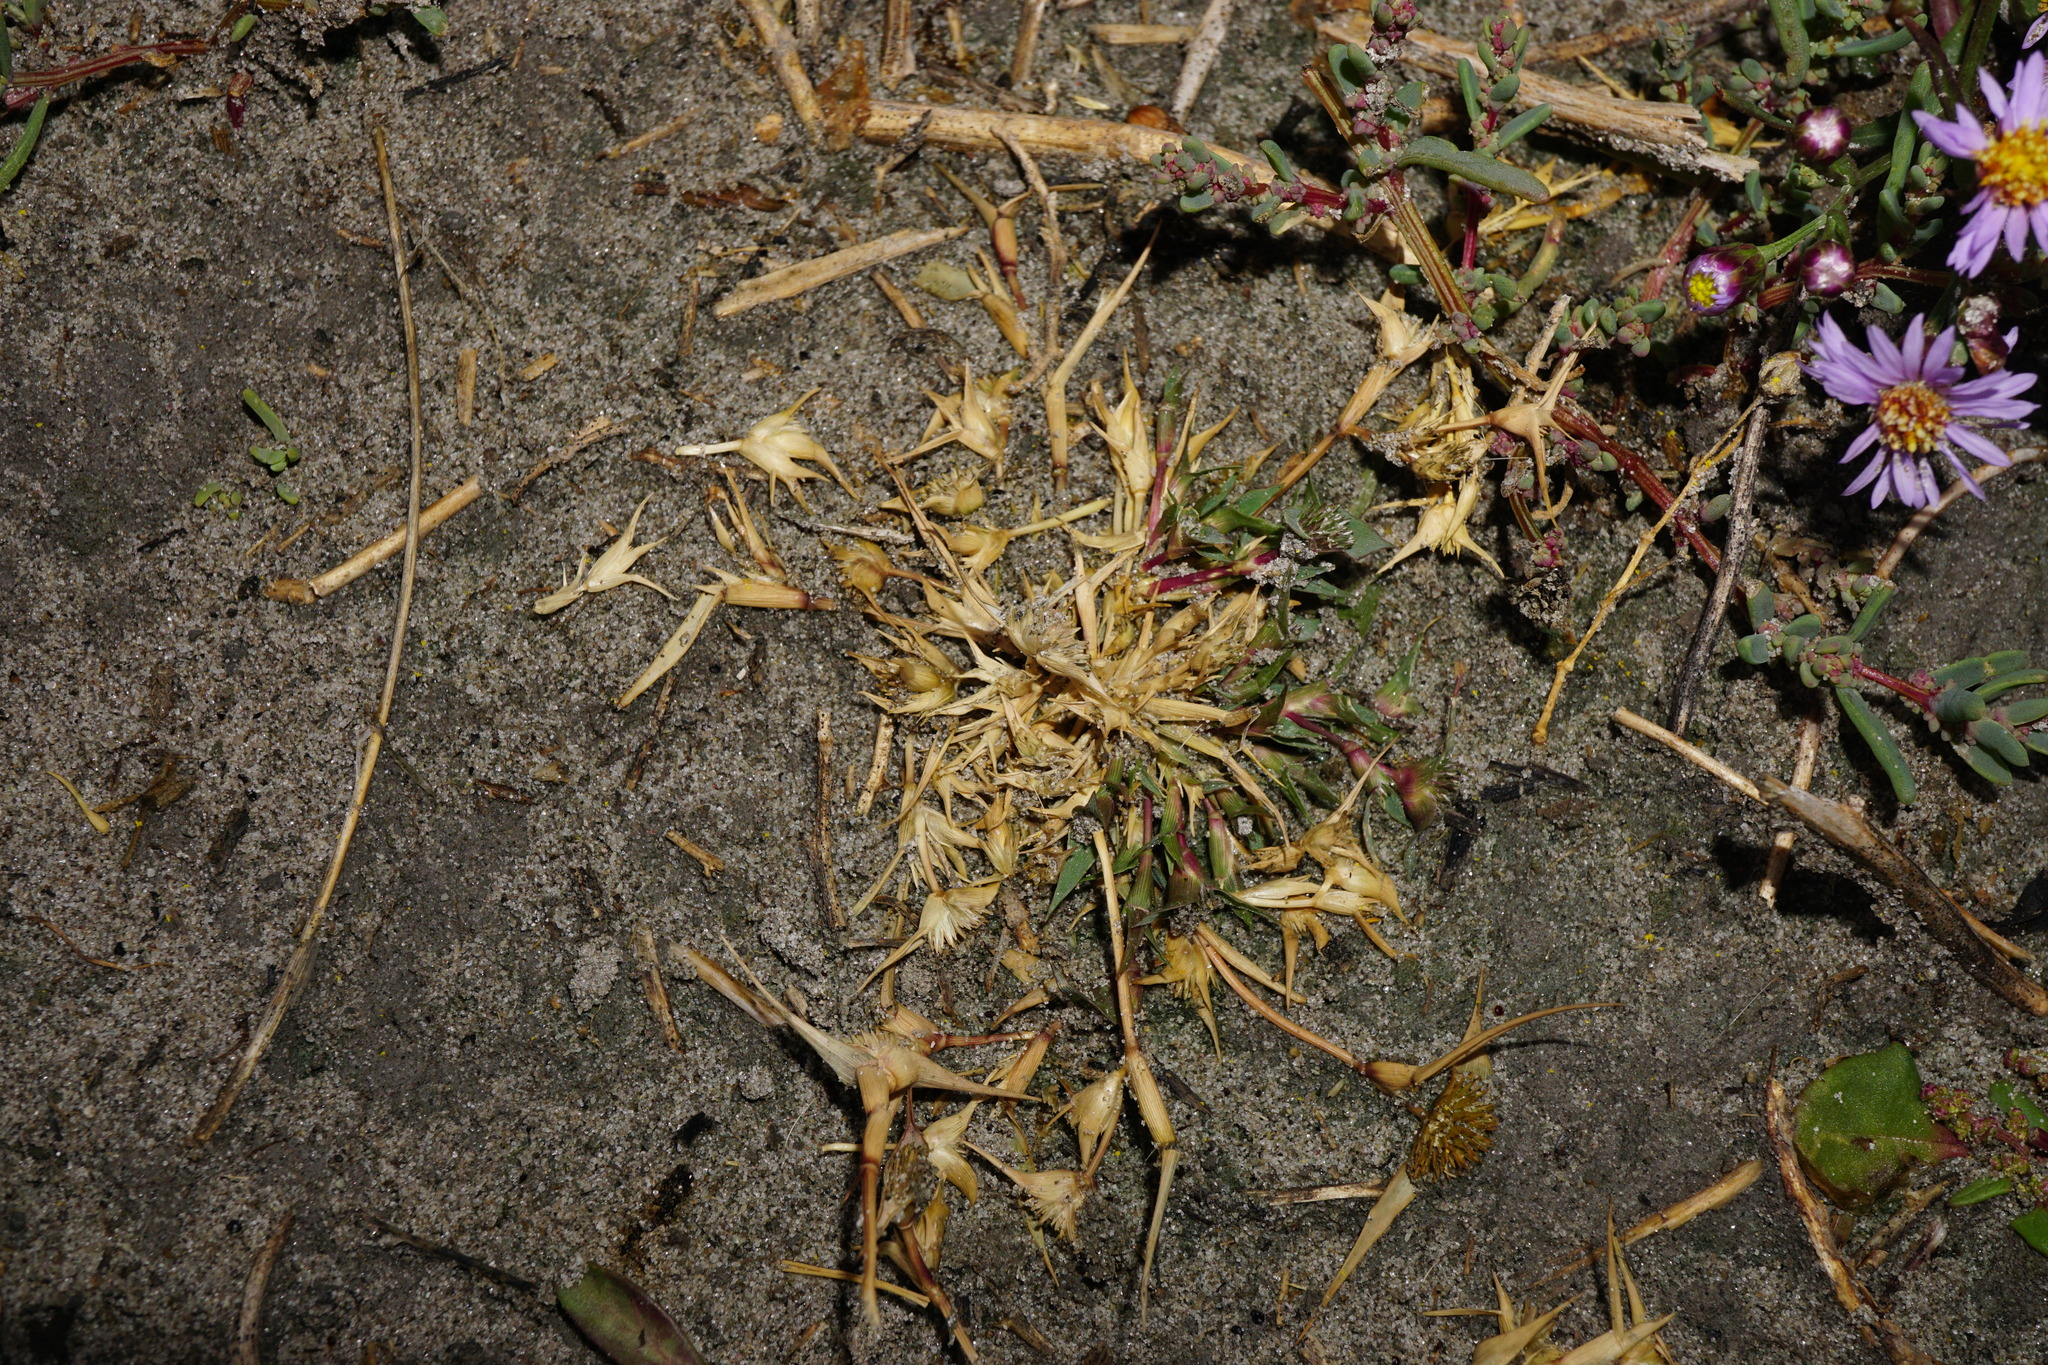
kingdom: Plantae
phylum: Tracheophyta
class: Liliopsida
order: Poales
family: Poaceae
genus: Sporobolus
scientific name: Sporobolus aculeatus
